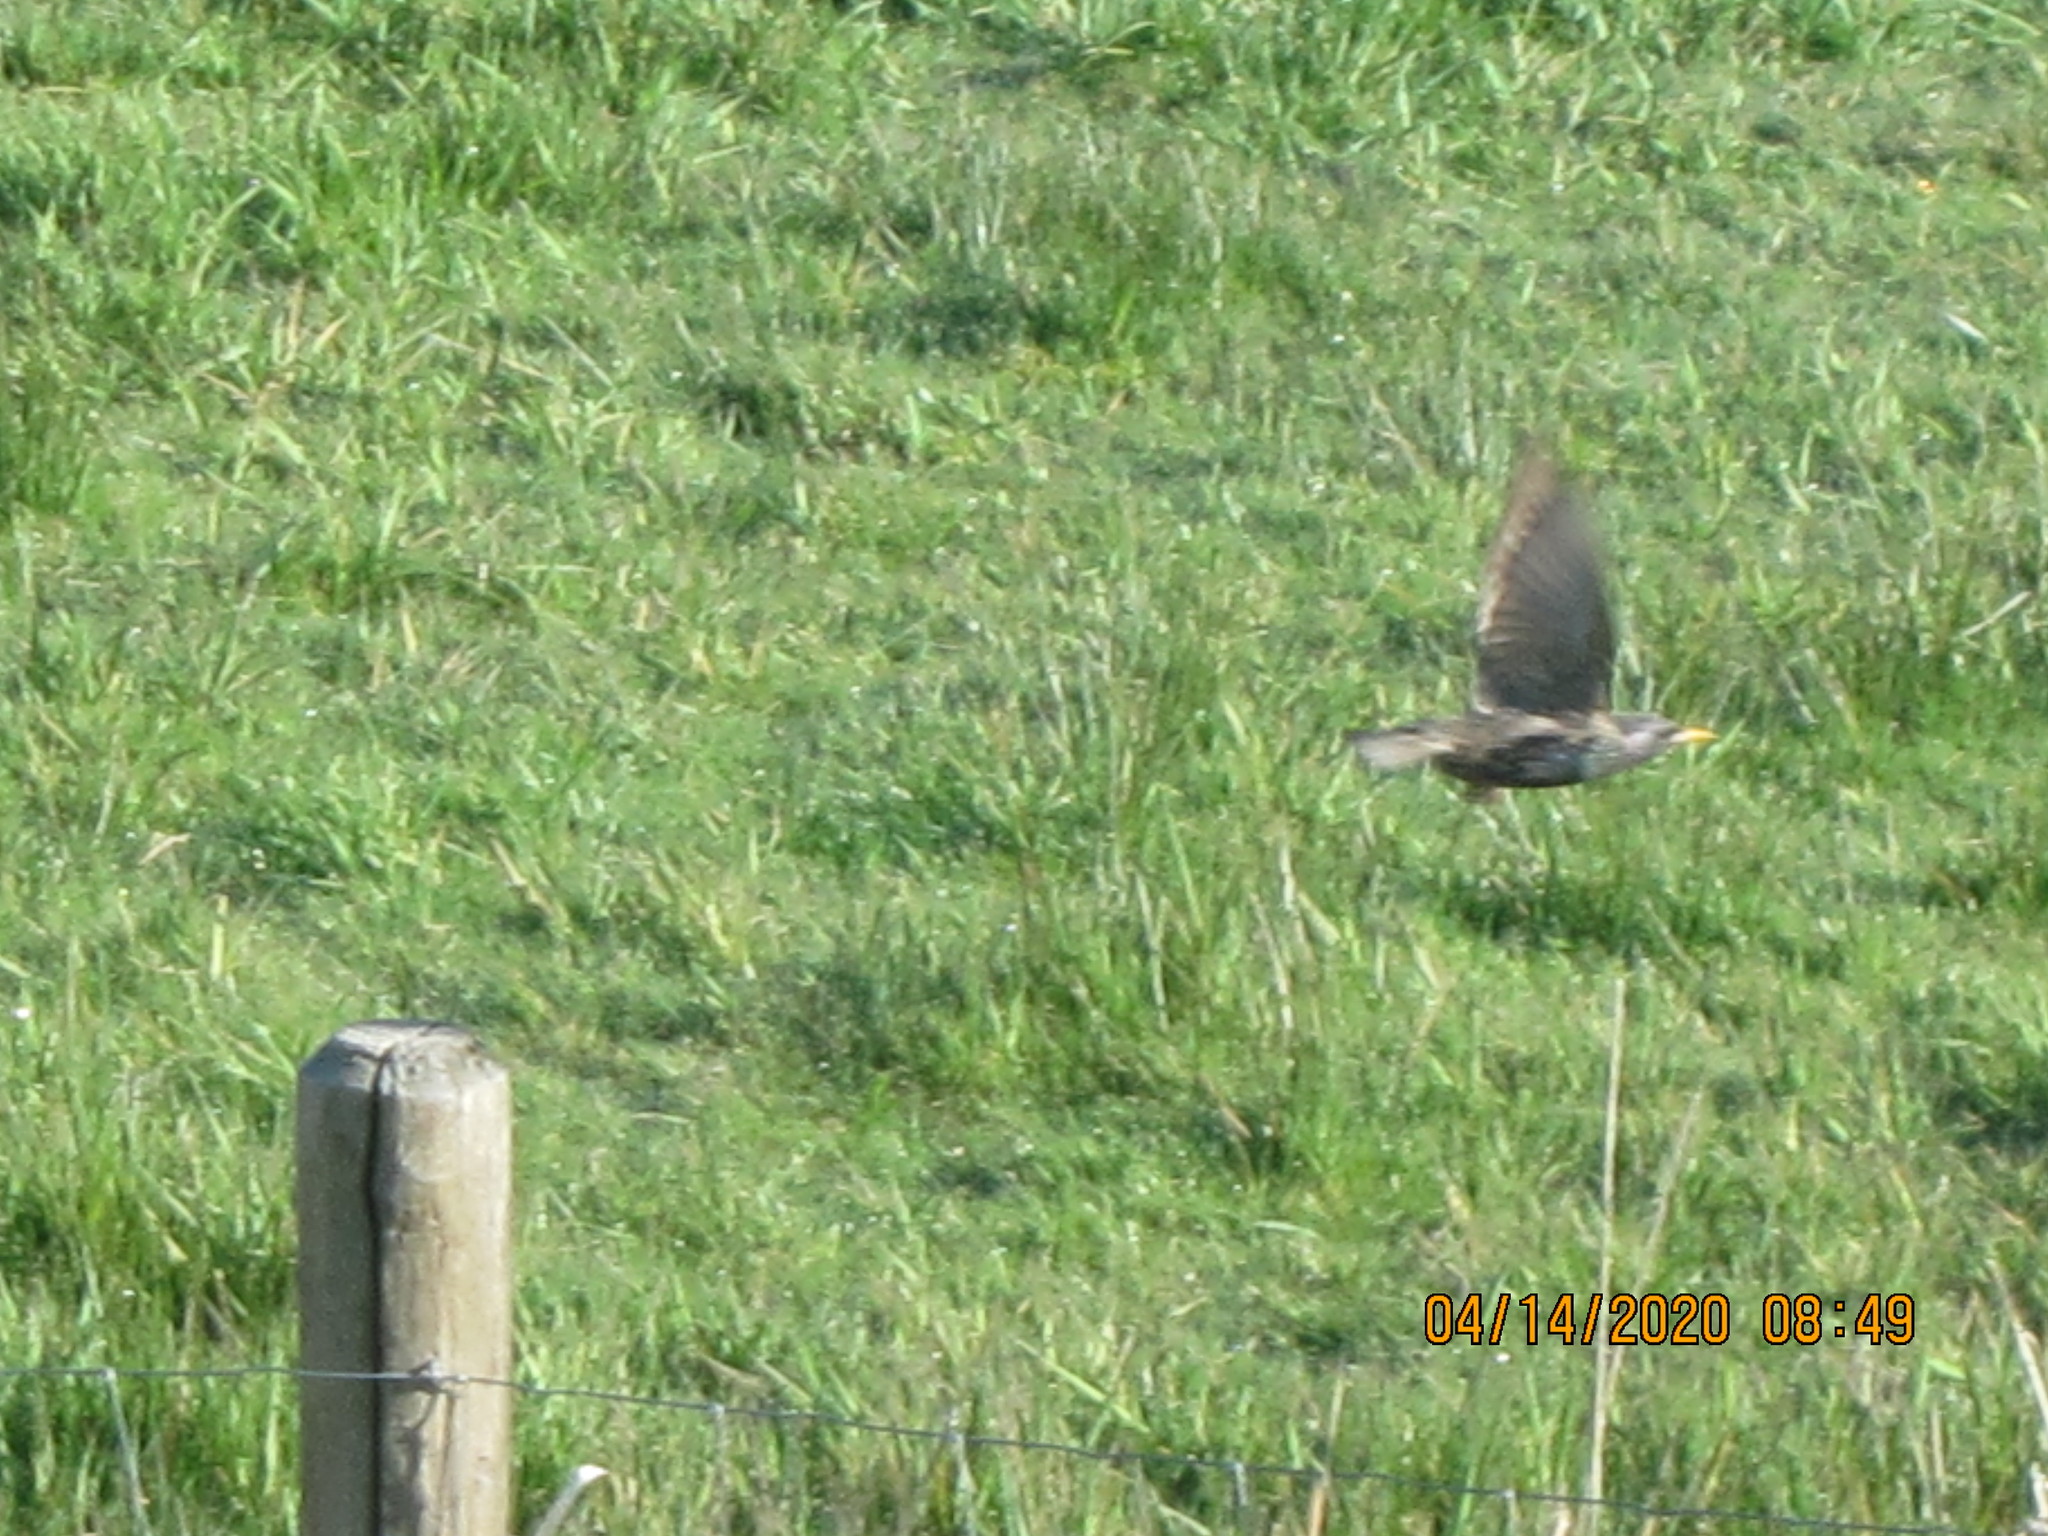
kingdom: Animalia
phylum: Chordata
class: Aves
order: Passeriformes
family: Sturnidae
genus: Sturnus
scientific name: Sturnus vulgaris
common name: Common starling
